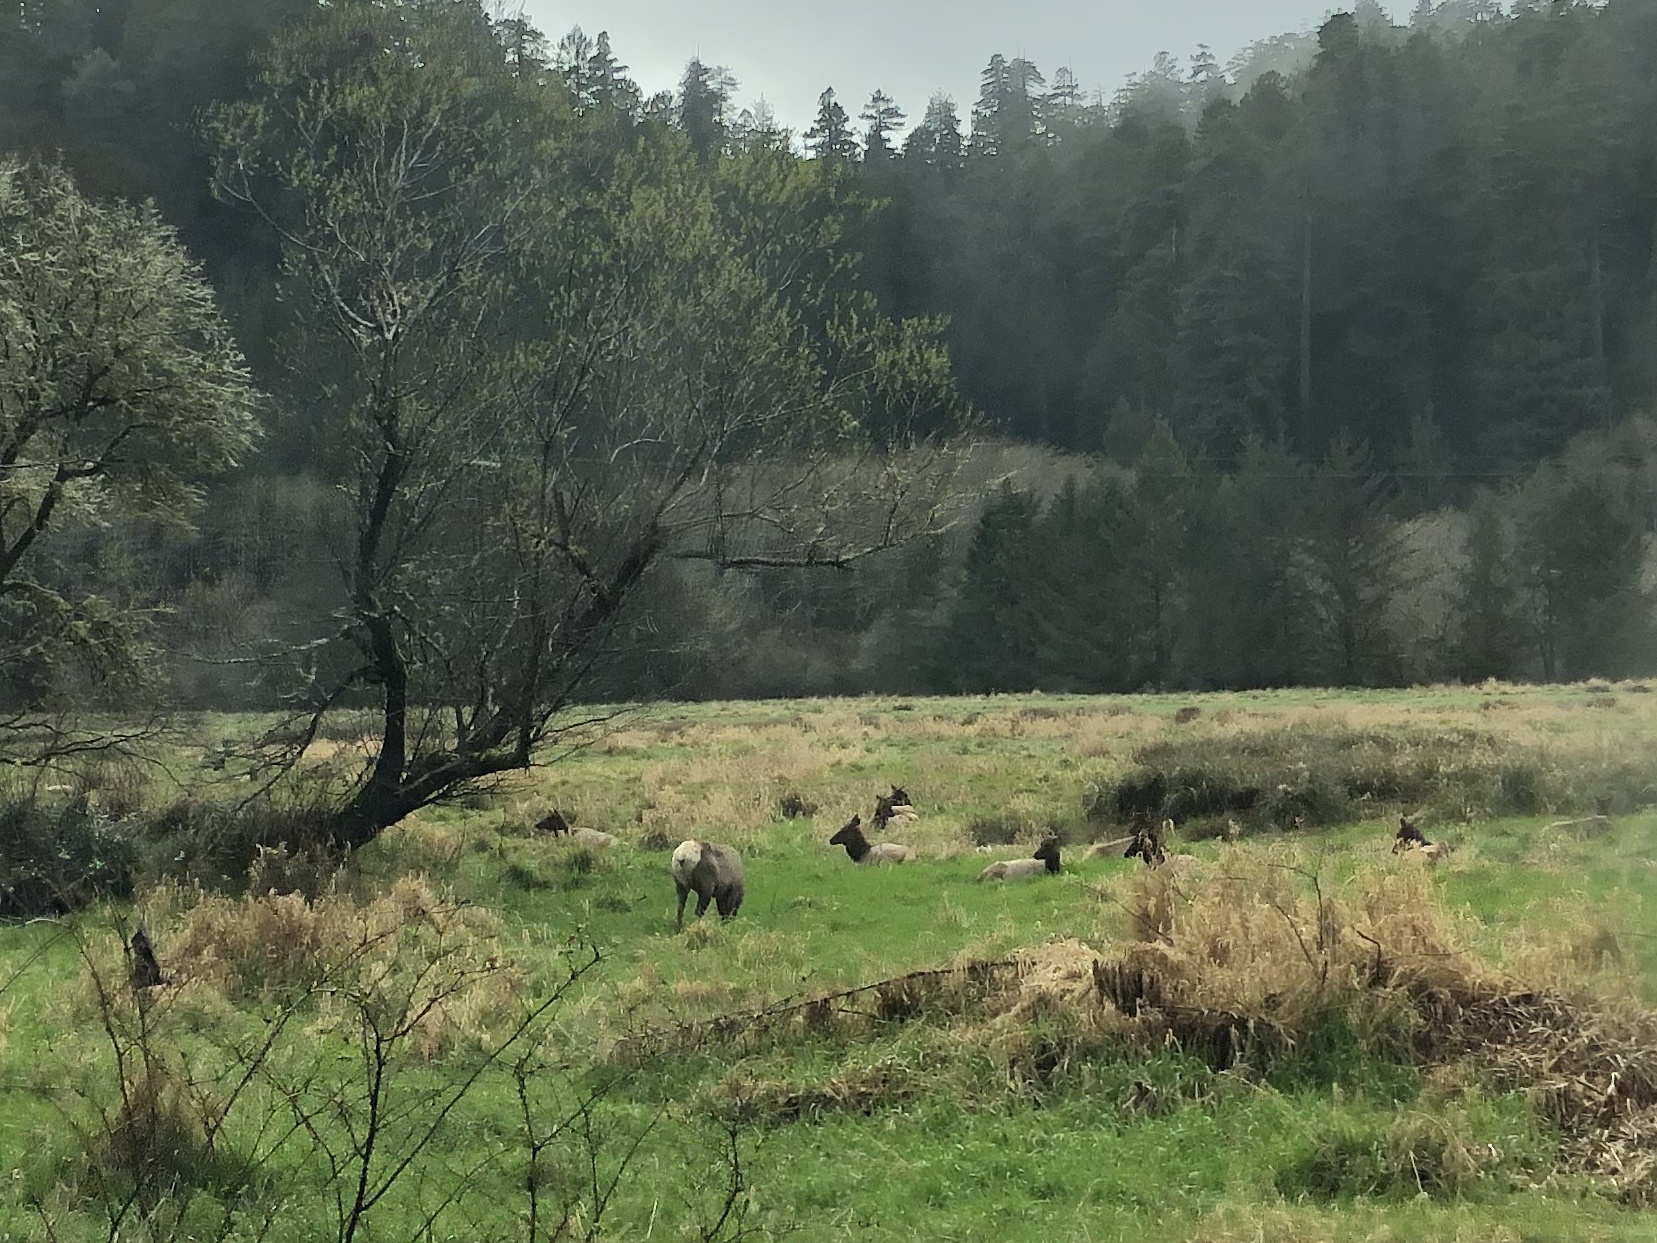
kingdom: Animalia
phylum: Chordata
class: Mammalia
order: Artiodactyla
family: Cervidae
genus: Cervus
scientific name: Cervus elaphus
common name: Red deer
